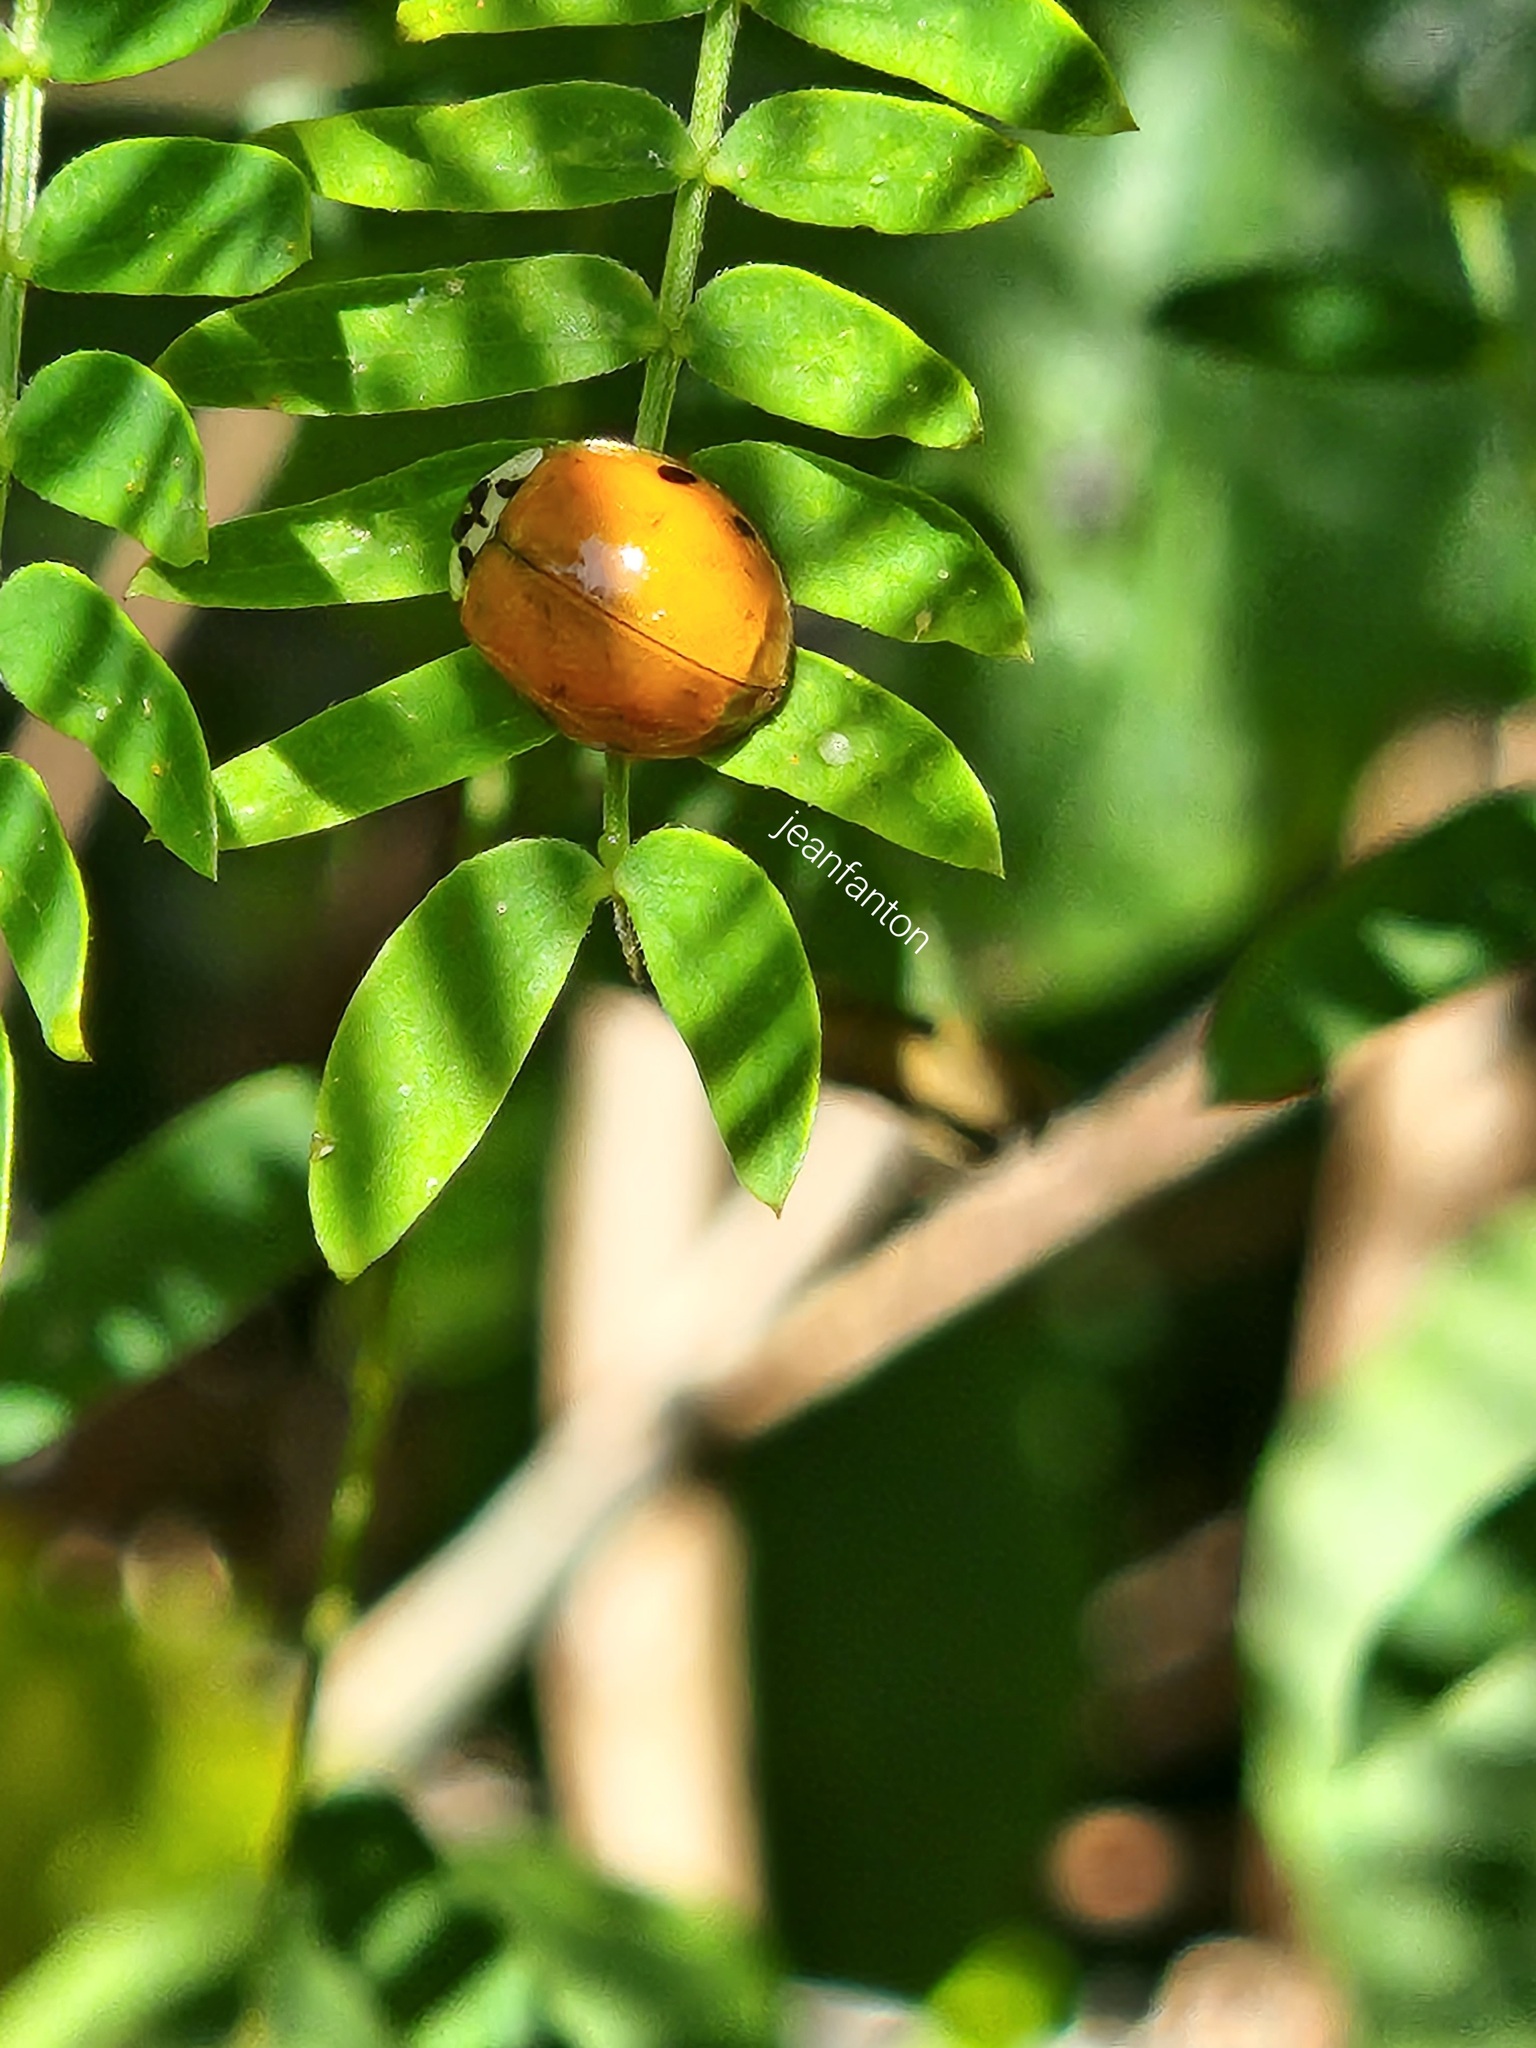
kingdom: Animalia
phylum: Arthropoda
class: Insecta
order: Coleoptera
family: Coccinellidae
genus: Harmonia
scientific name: Harmonia axyridis
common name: Harlequin ladybird
